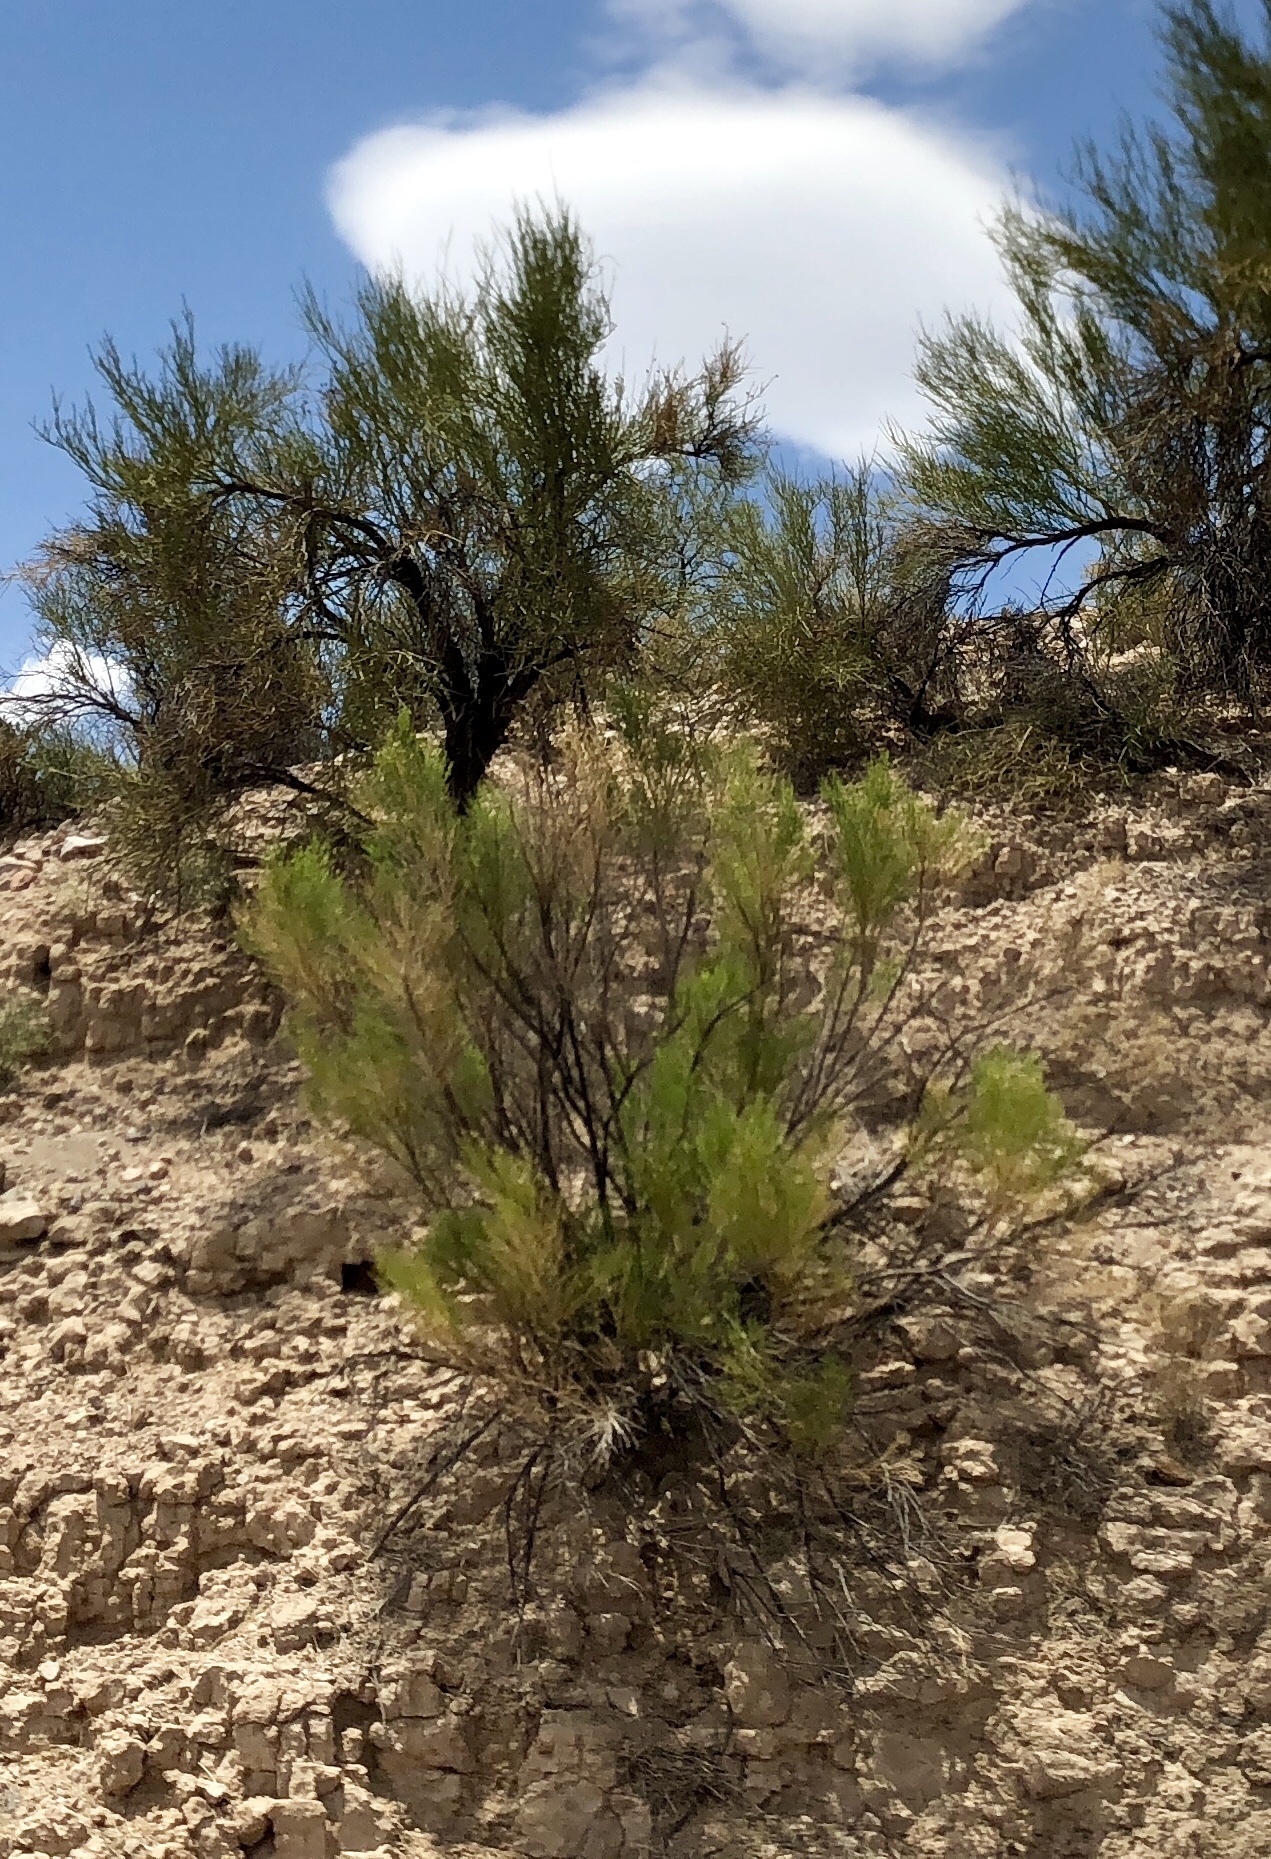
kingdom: Plantae
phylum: Tracheophyta
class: Magnoliopsida
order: Asterales
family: Asteraceae
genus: Baccharis
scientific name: Baccharis sarothroides
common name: Desert-broom
